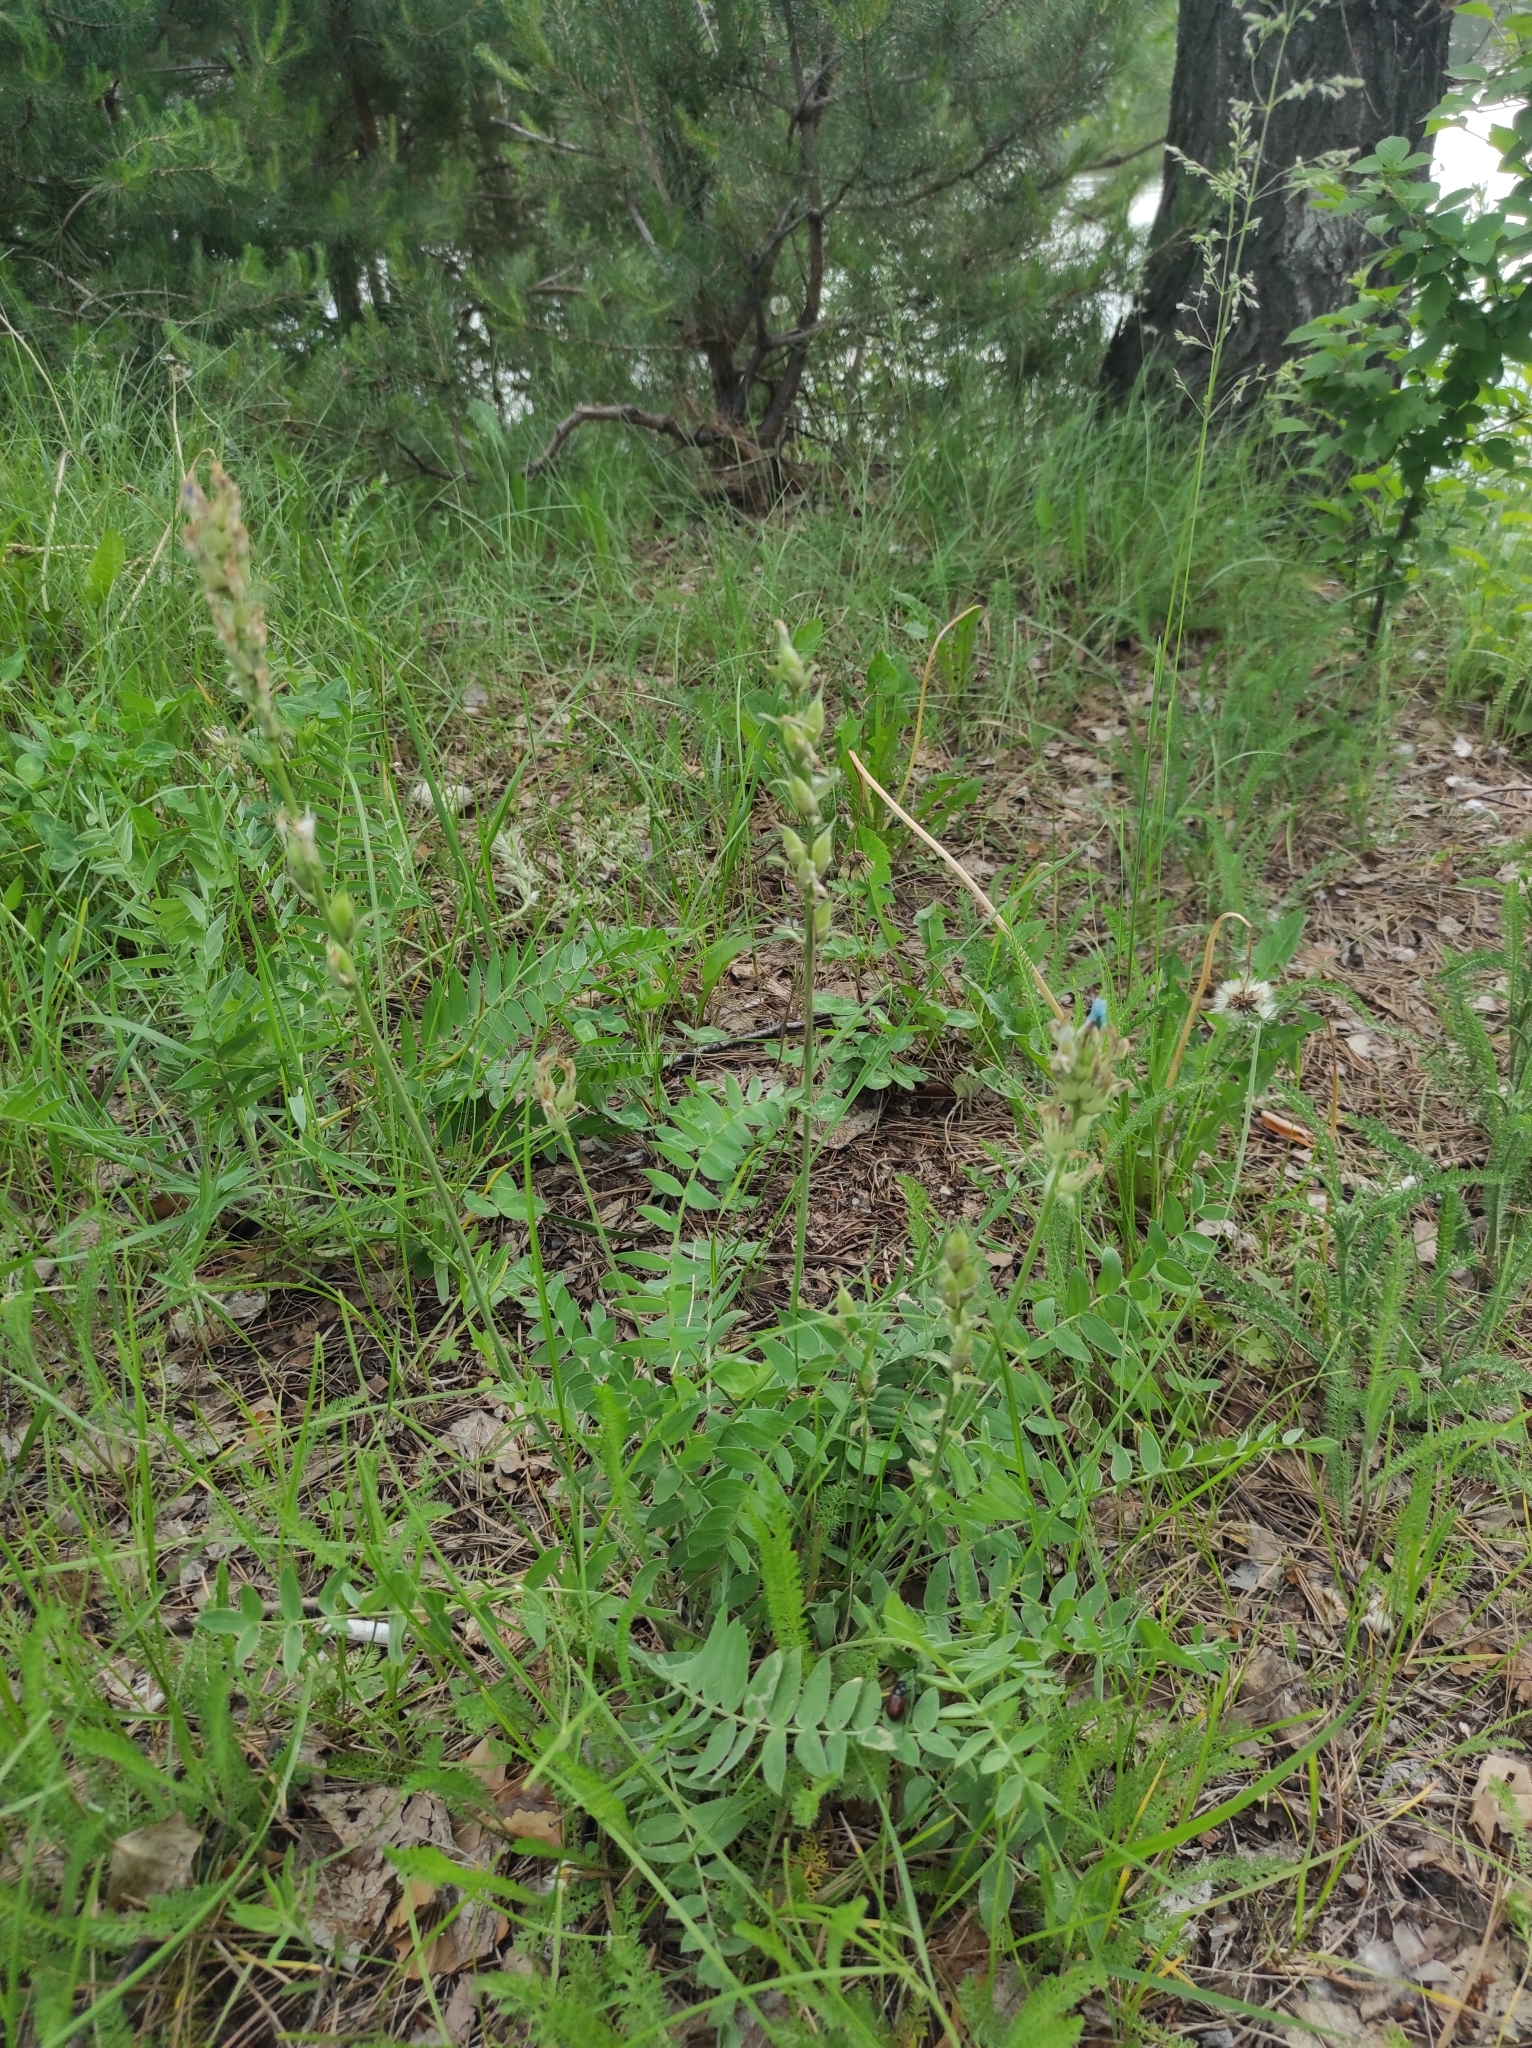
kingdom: Plantae
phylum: Tracheophyta
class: Magnoliopsida
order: Fabales
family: Fabaceae
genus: Oxytropis
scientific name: Oxytropis strobilacea
